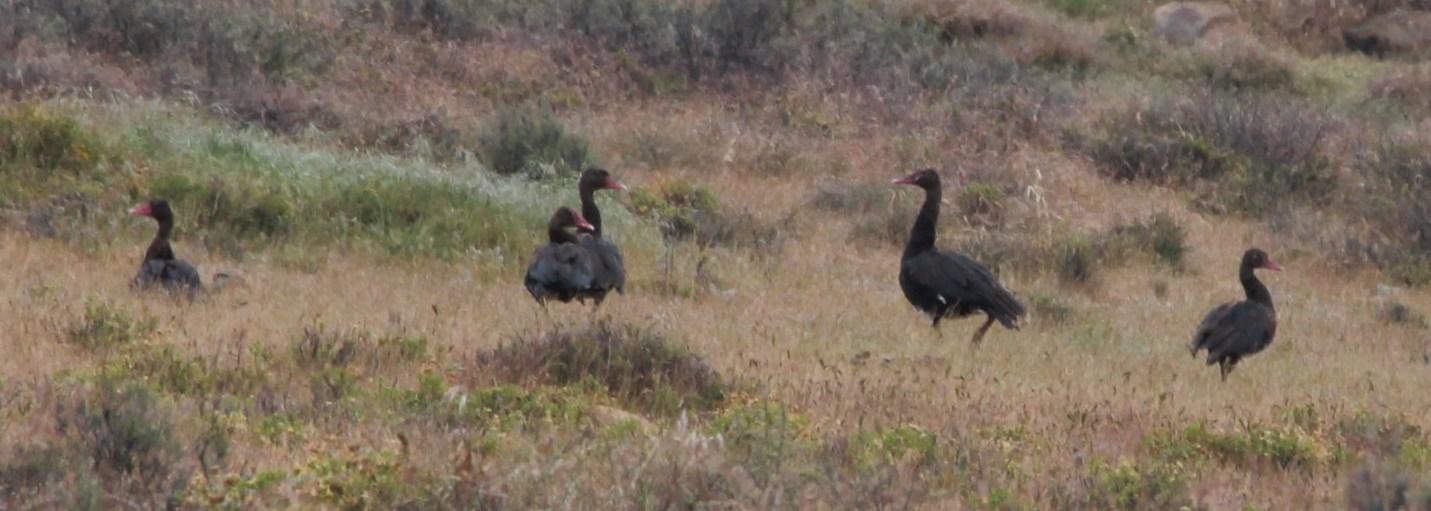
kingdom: Animalia
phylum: Chordata
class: Aves
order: Anseriformes
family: Anatidae
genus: Plectropterus
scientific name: Plectropterus gambensis
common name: Spur-winged goose
